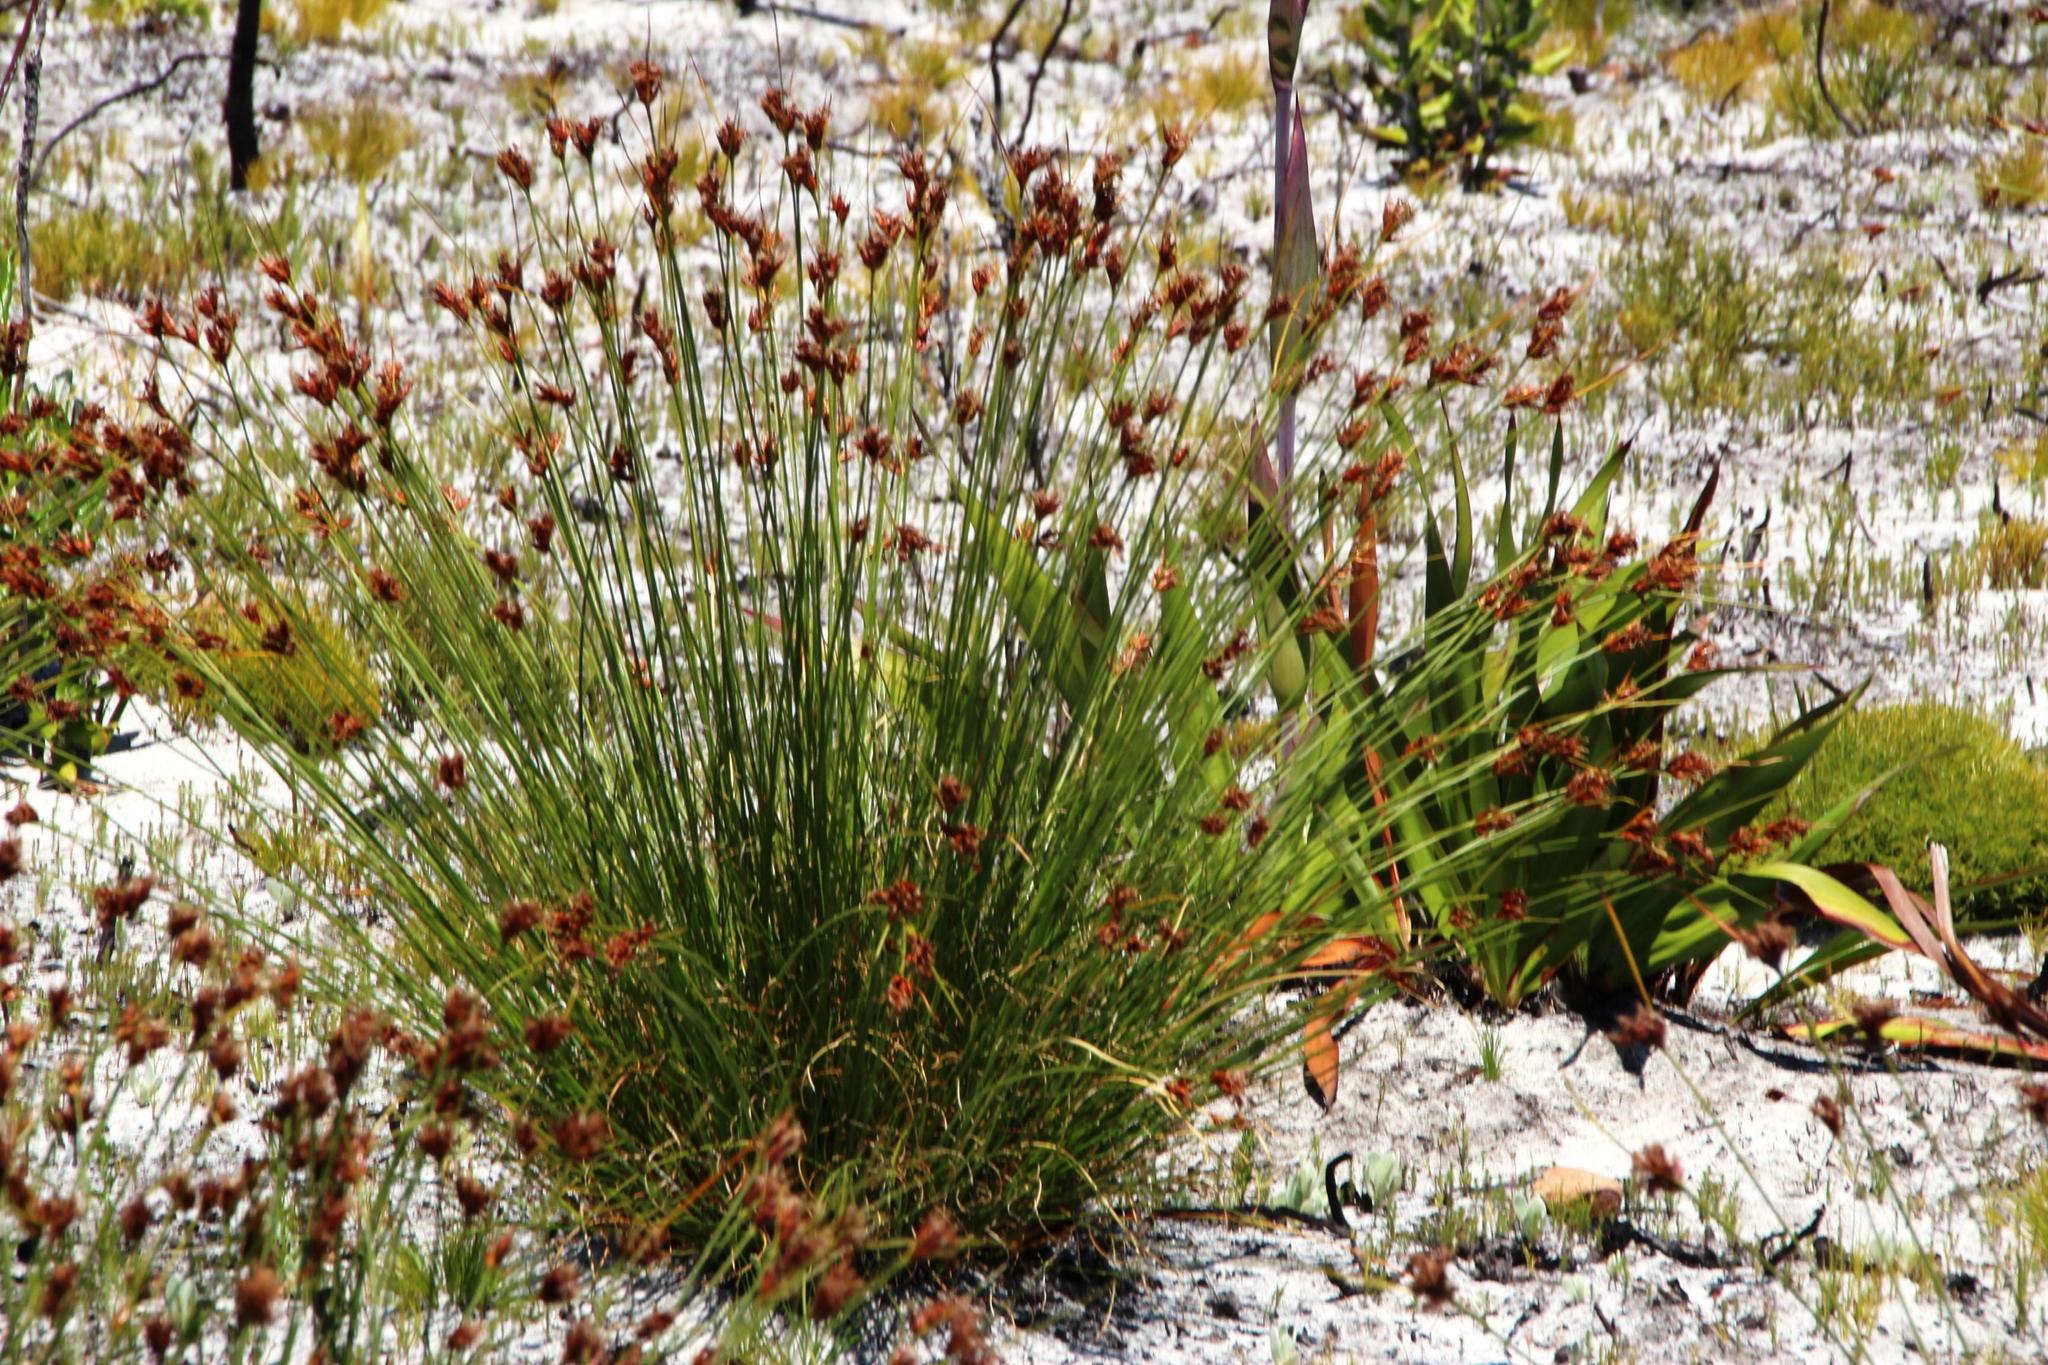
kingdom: Plantae
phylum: Tracheophyta
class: Liliopsida
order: Poales
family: Cyperaceae
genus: Schoenus
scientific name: Schoenus compar
